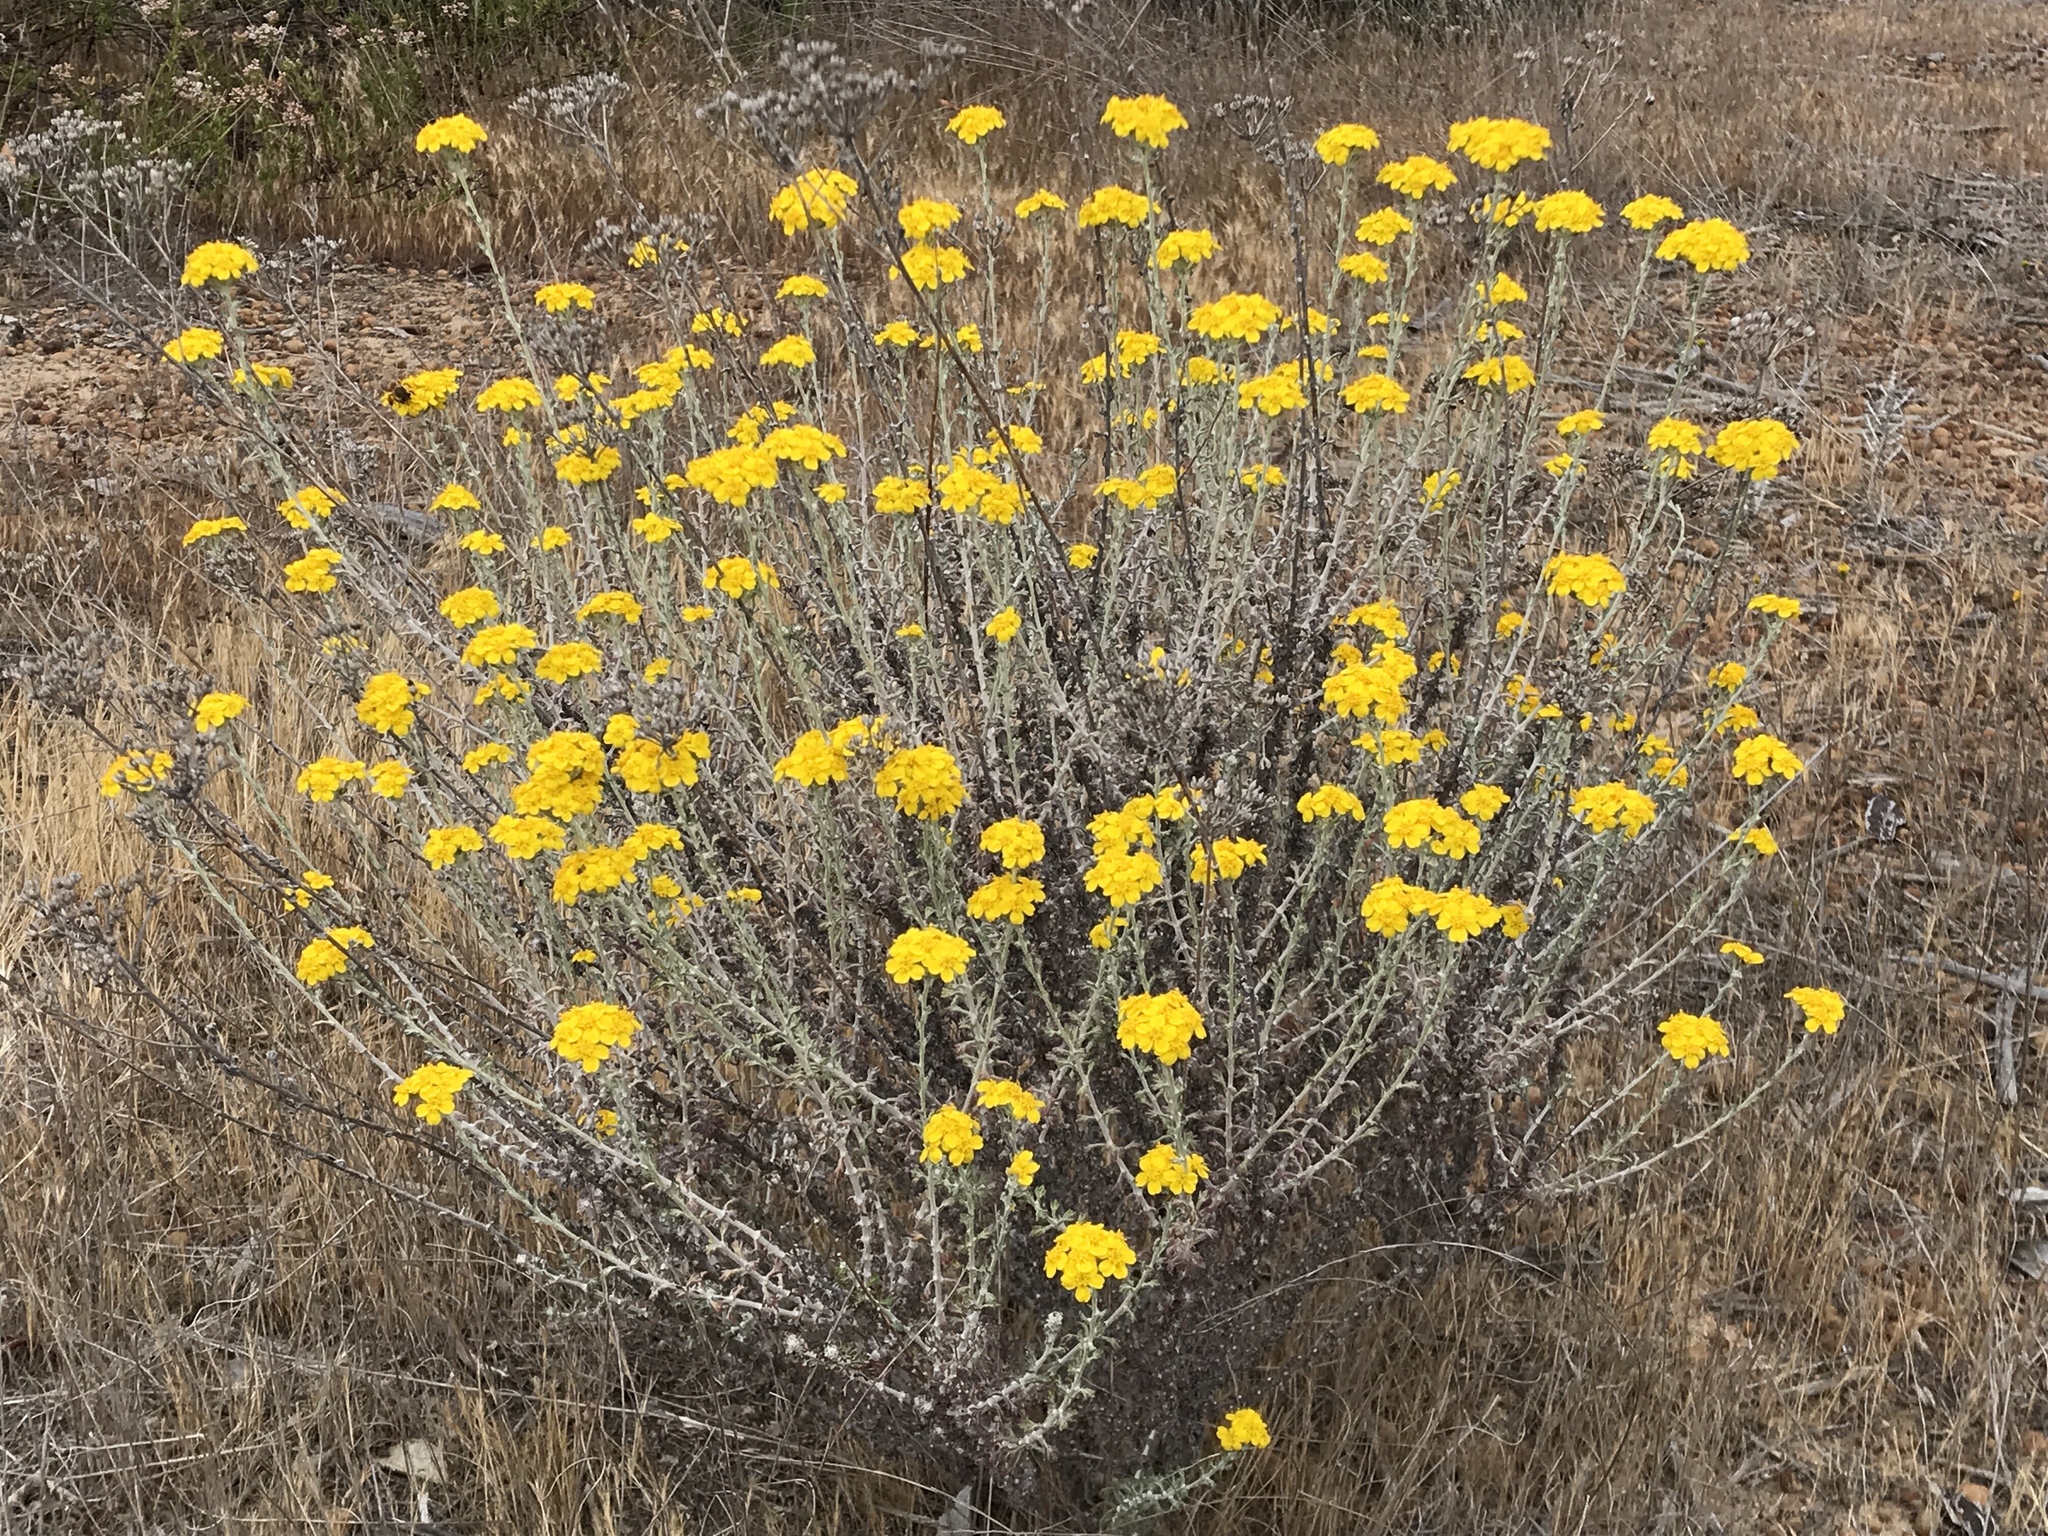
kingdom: Plantae
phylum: Tracheophyta
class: Magnoliopsida
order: Asterales
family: Asteraceae
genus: Eriophyllum
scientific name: Eriophyllum confertiflorum
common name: Golden-yarrow
